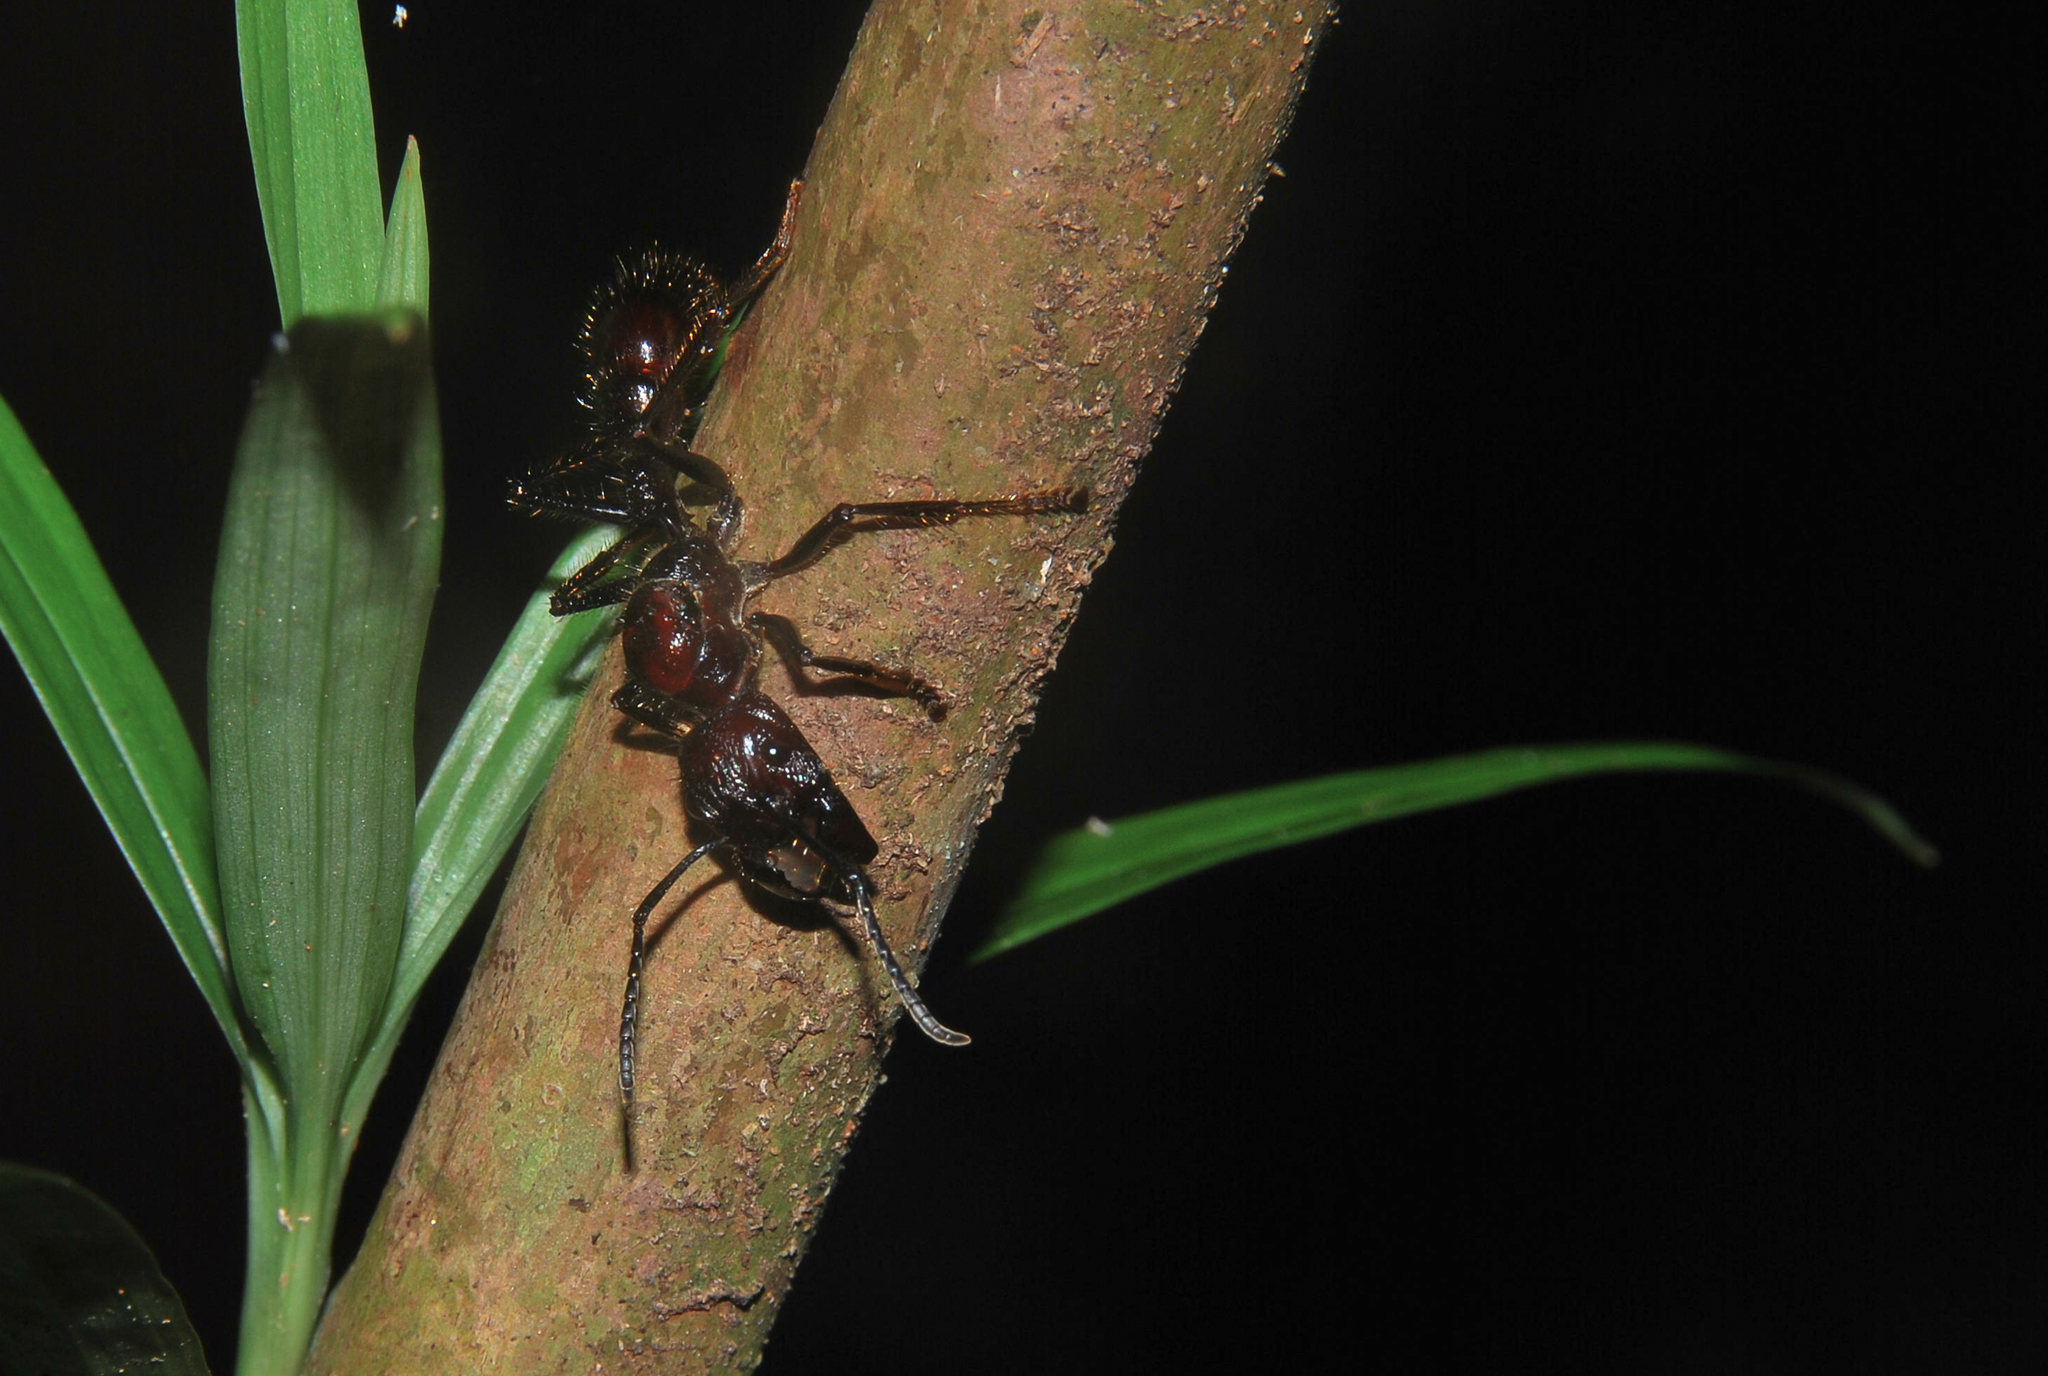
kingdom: Animalia
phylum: Arthropoda
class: Insecta
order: Hymenoptera
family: Formicidae
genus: Paraponera
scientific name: Paraponera clavata
